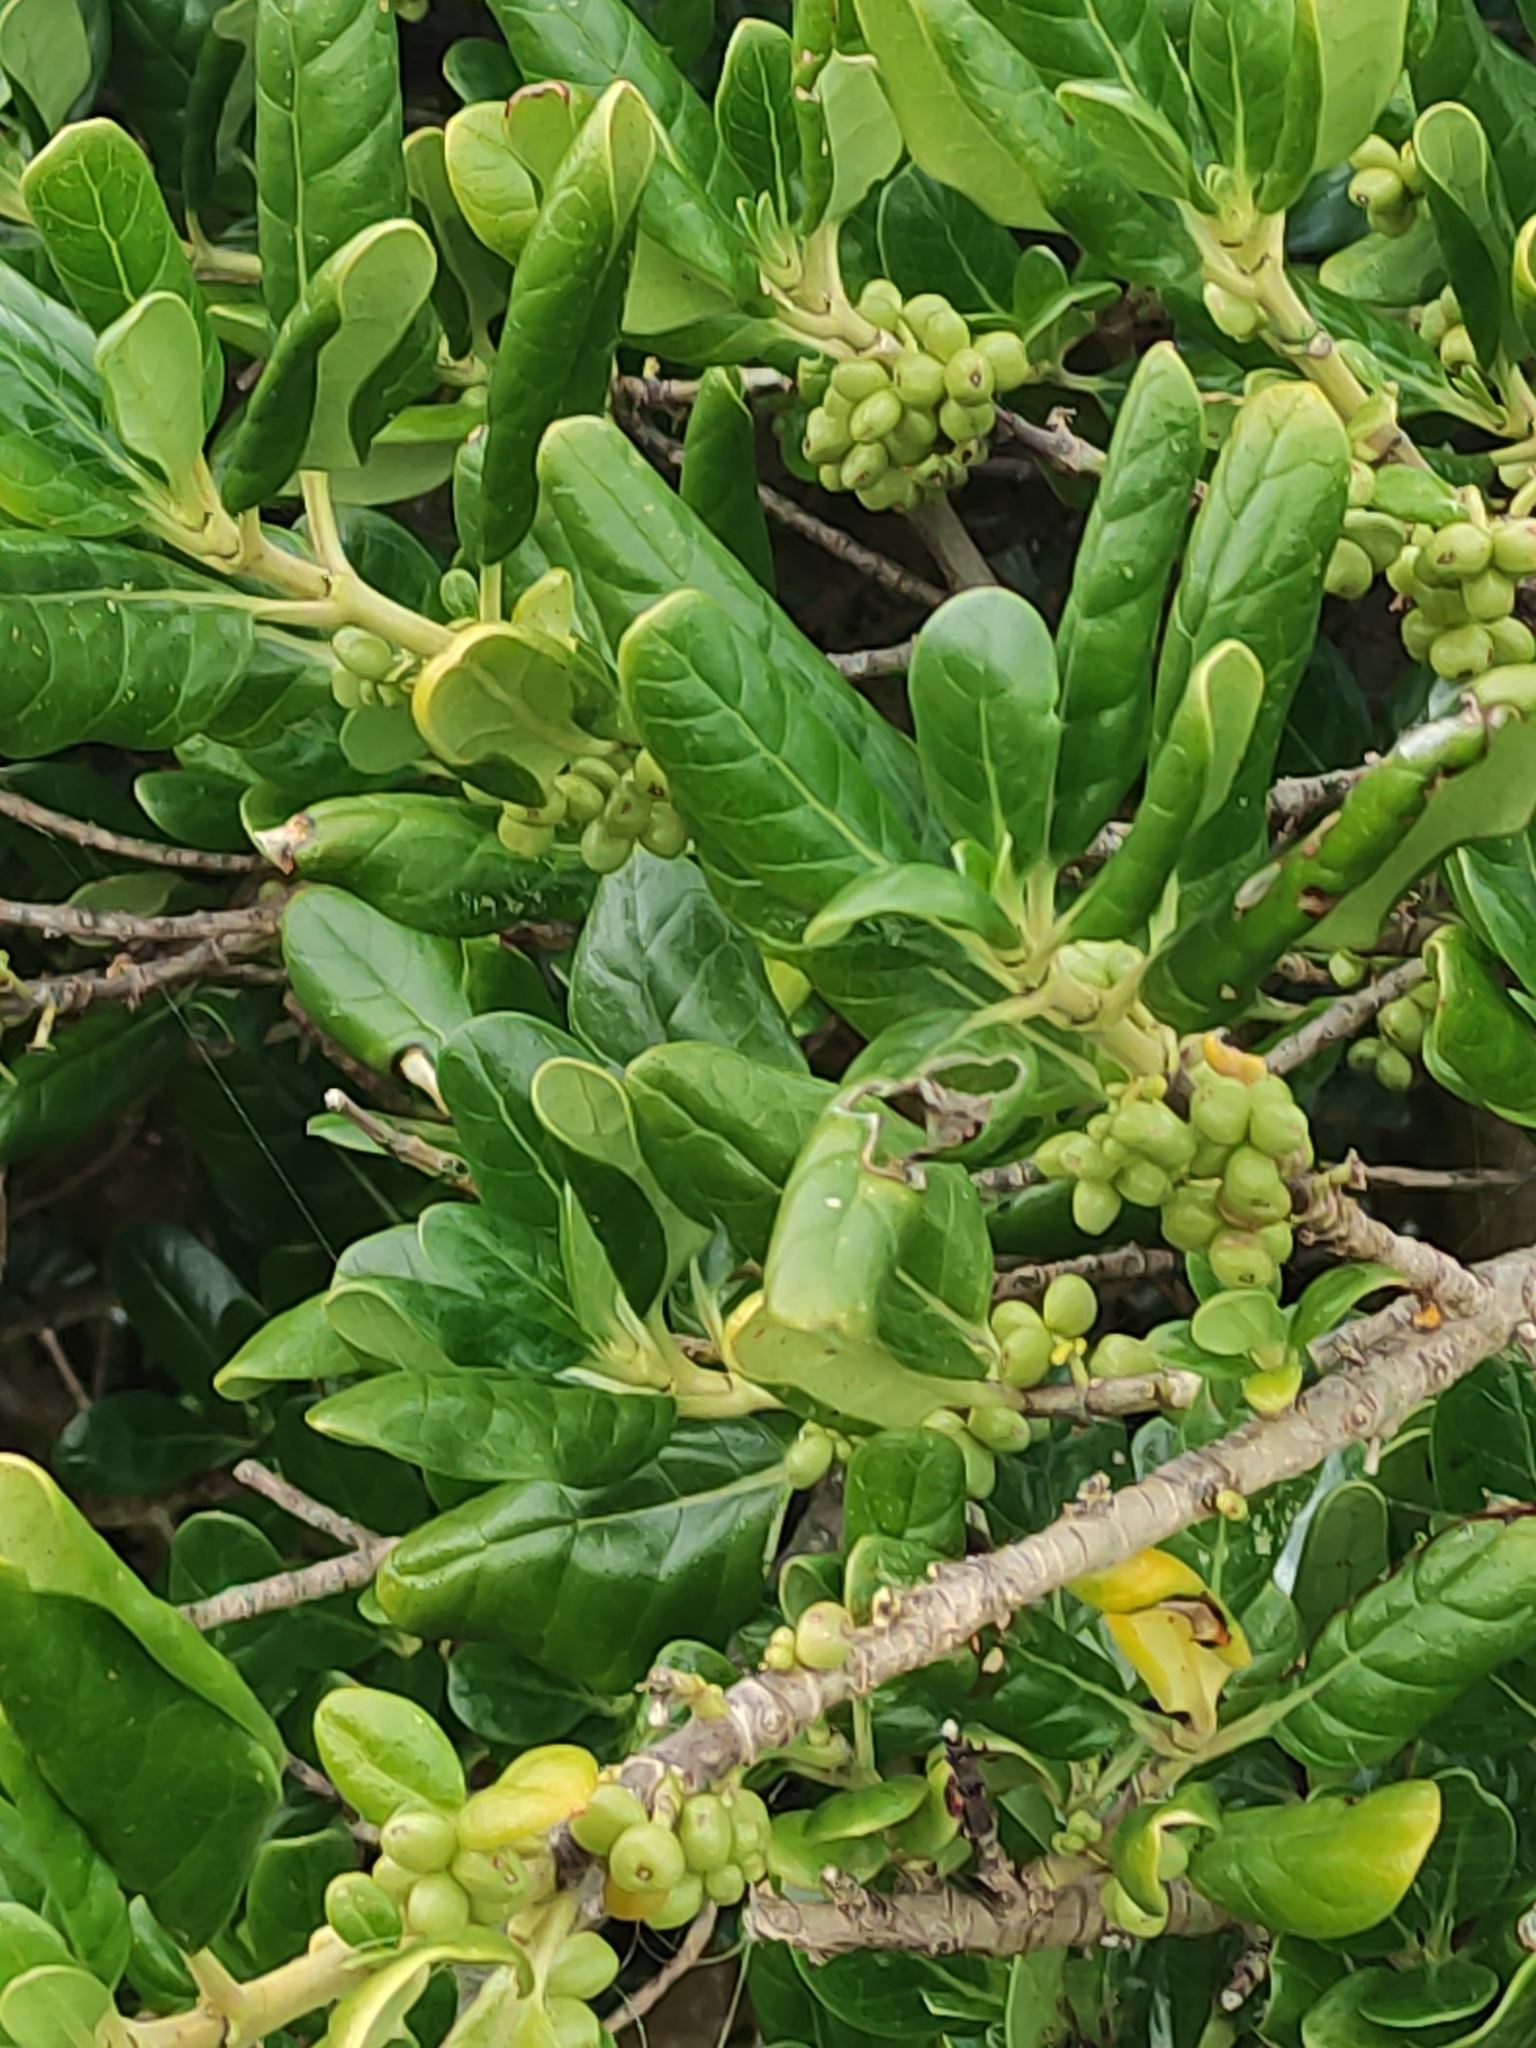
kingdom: Plantae
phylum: Tracheophyta
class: Magnoliopsida
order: Gentianales
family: Rubiaceae
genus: Coprosma
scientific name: Coprosma repens
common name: Tree bedstraw
